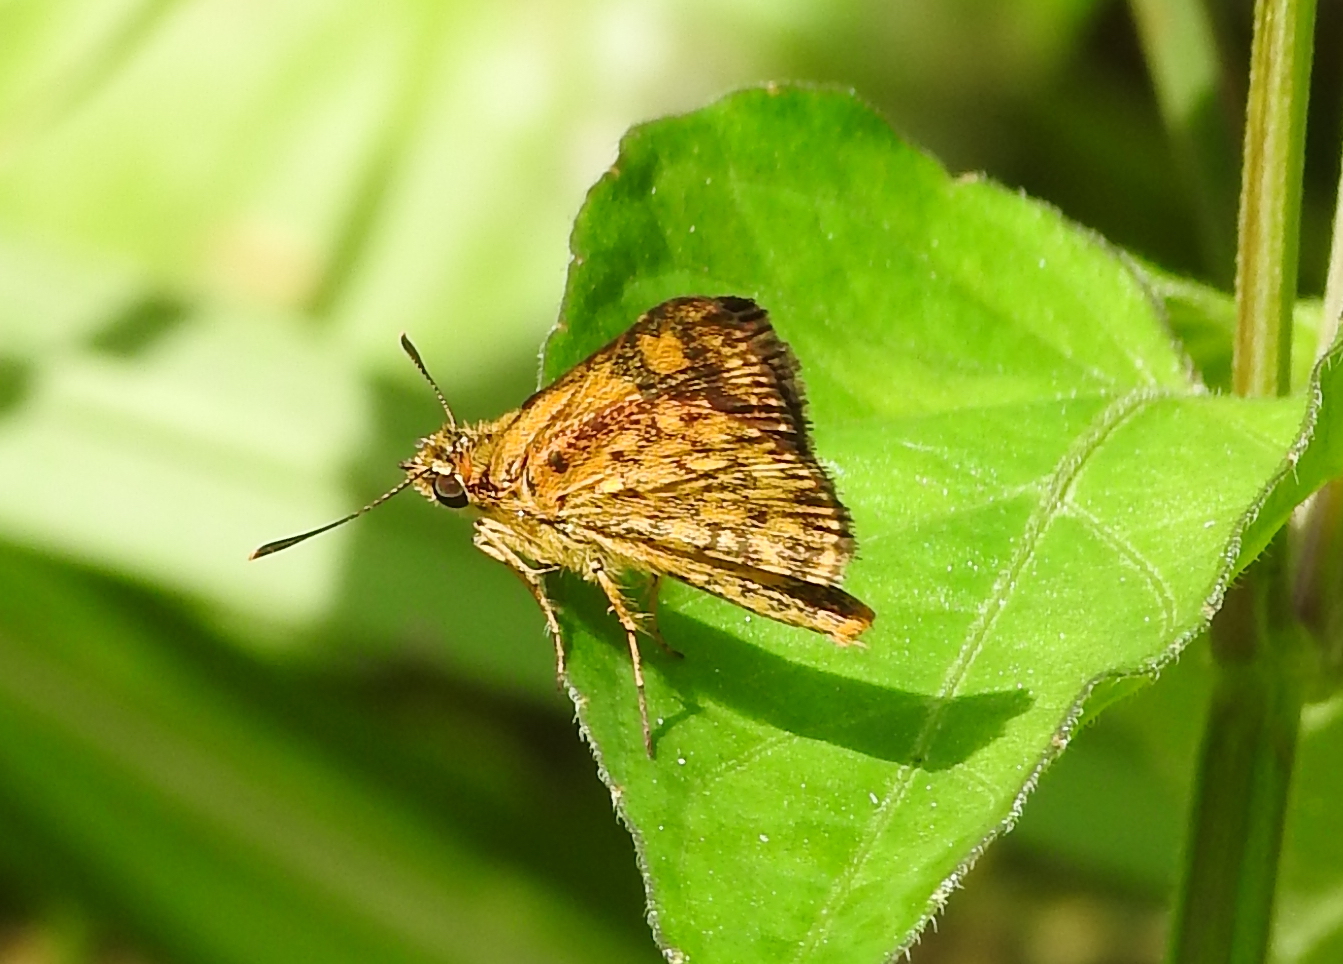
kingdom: Animalia
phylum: Arthropoda
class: Insecta
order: Lepidoptera
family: Hesperiidae
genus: Ampittia
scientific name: Ampittia dioscorides
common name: Common bush hopper
